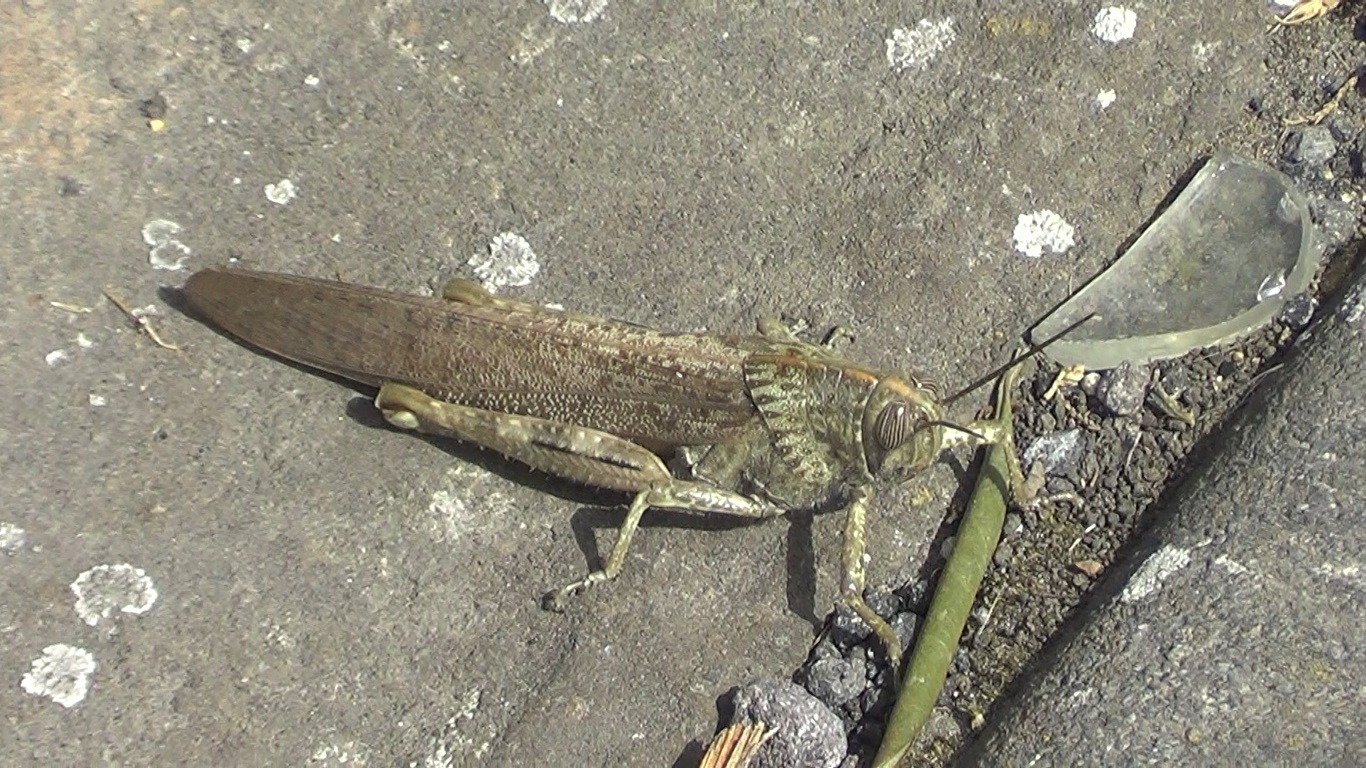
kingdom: Animalia
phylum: Arthropoda
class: Insecta
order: Orthoptera
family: Acrididae
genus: Anacridium
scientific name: Anacridium aegyptium
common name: Egyptian grasshopper
